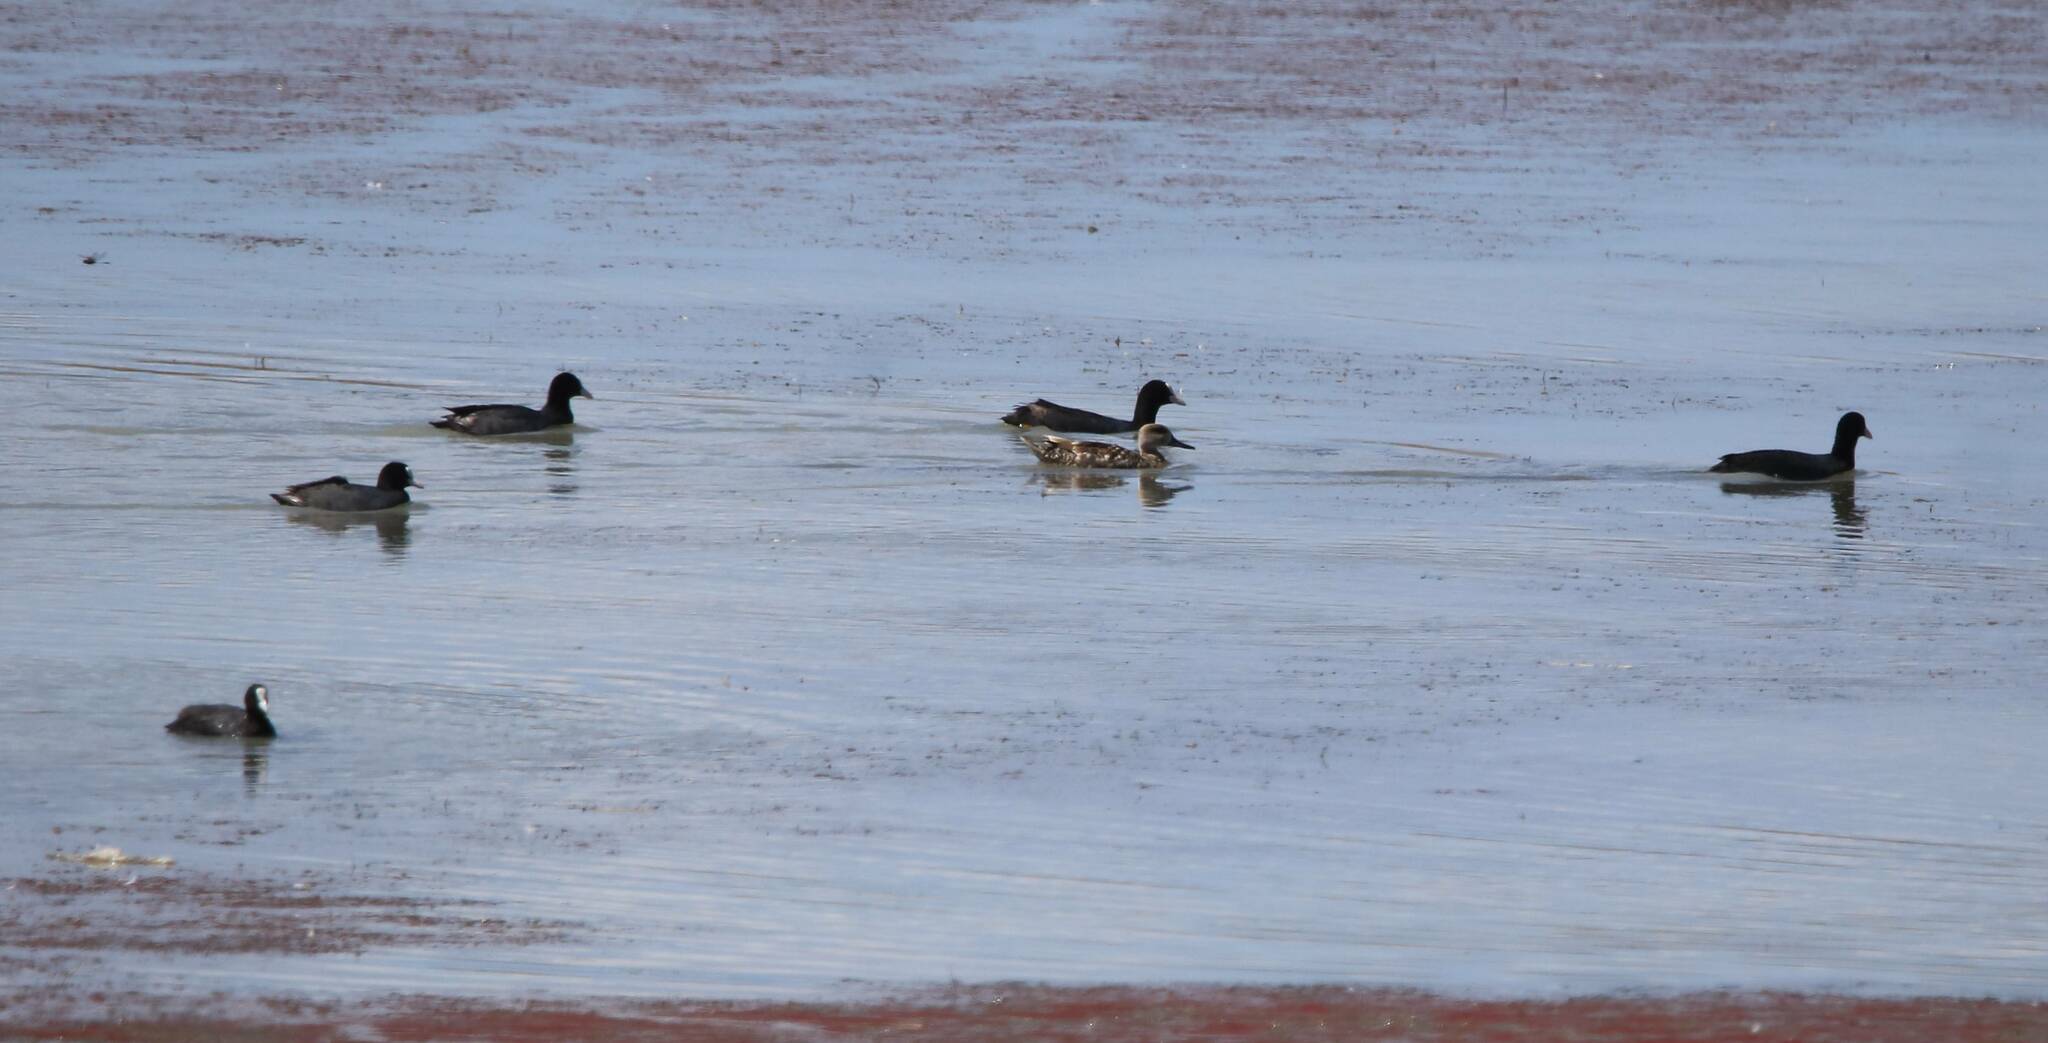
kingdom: Animalia
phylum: Chordata
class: Aves
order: Gruiformes
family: Rallidae
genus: Fulica
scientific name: Fulica atra
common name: Eurasian coot
